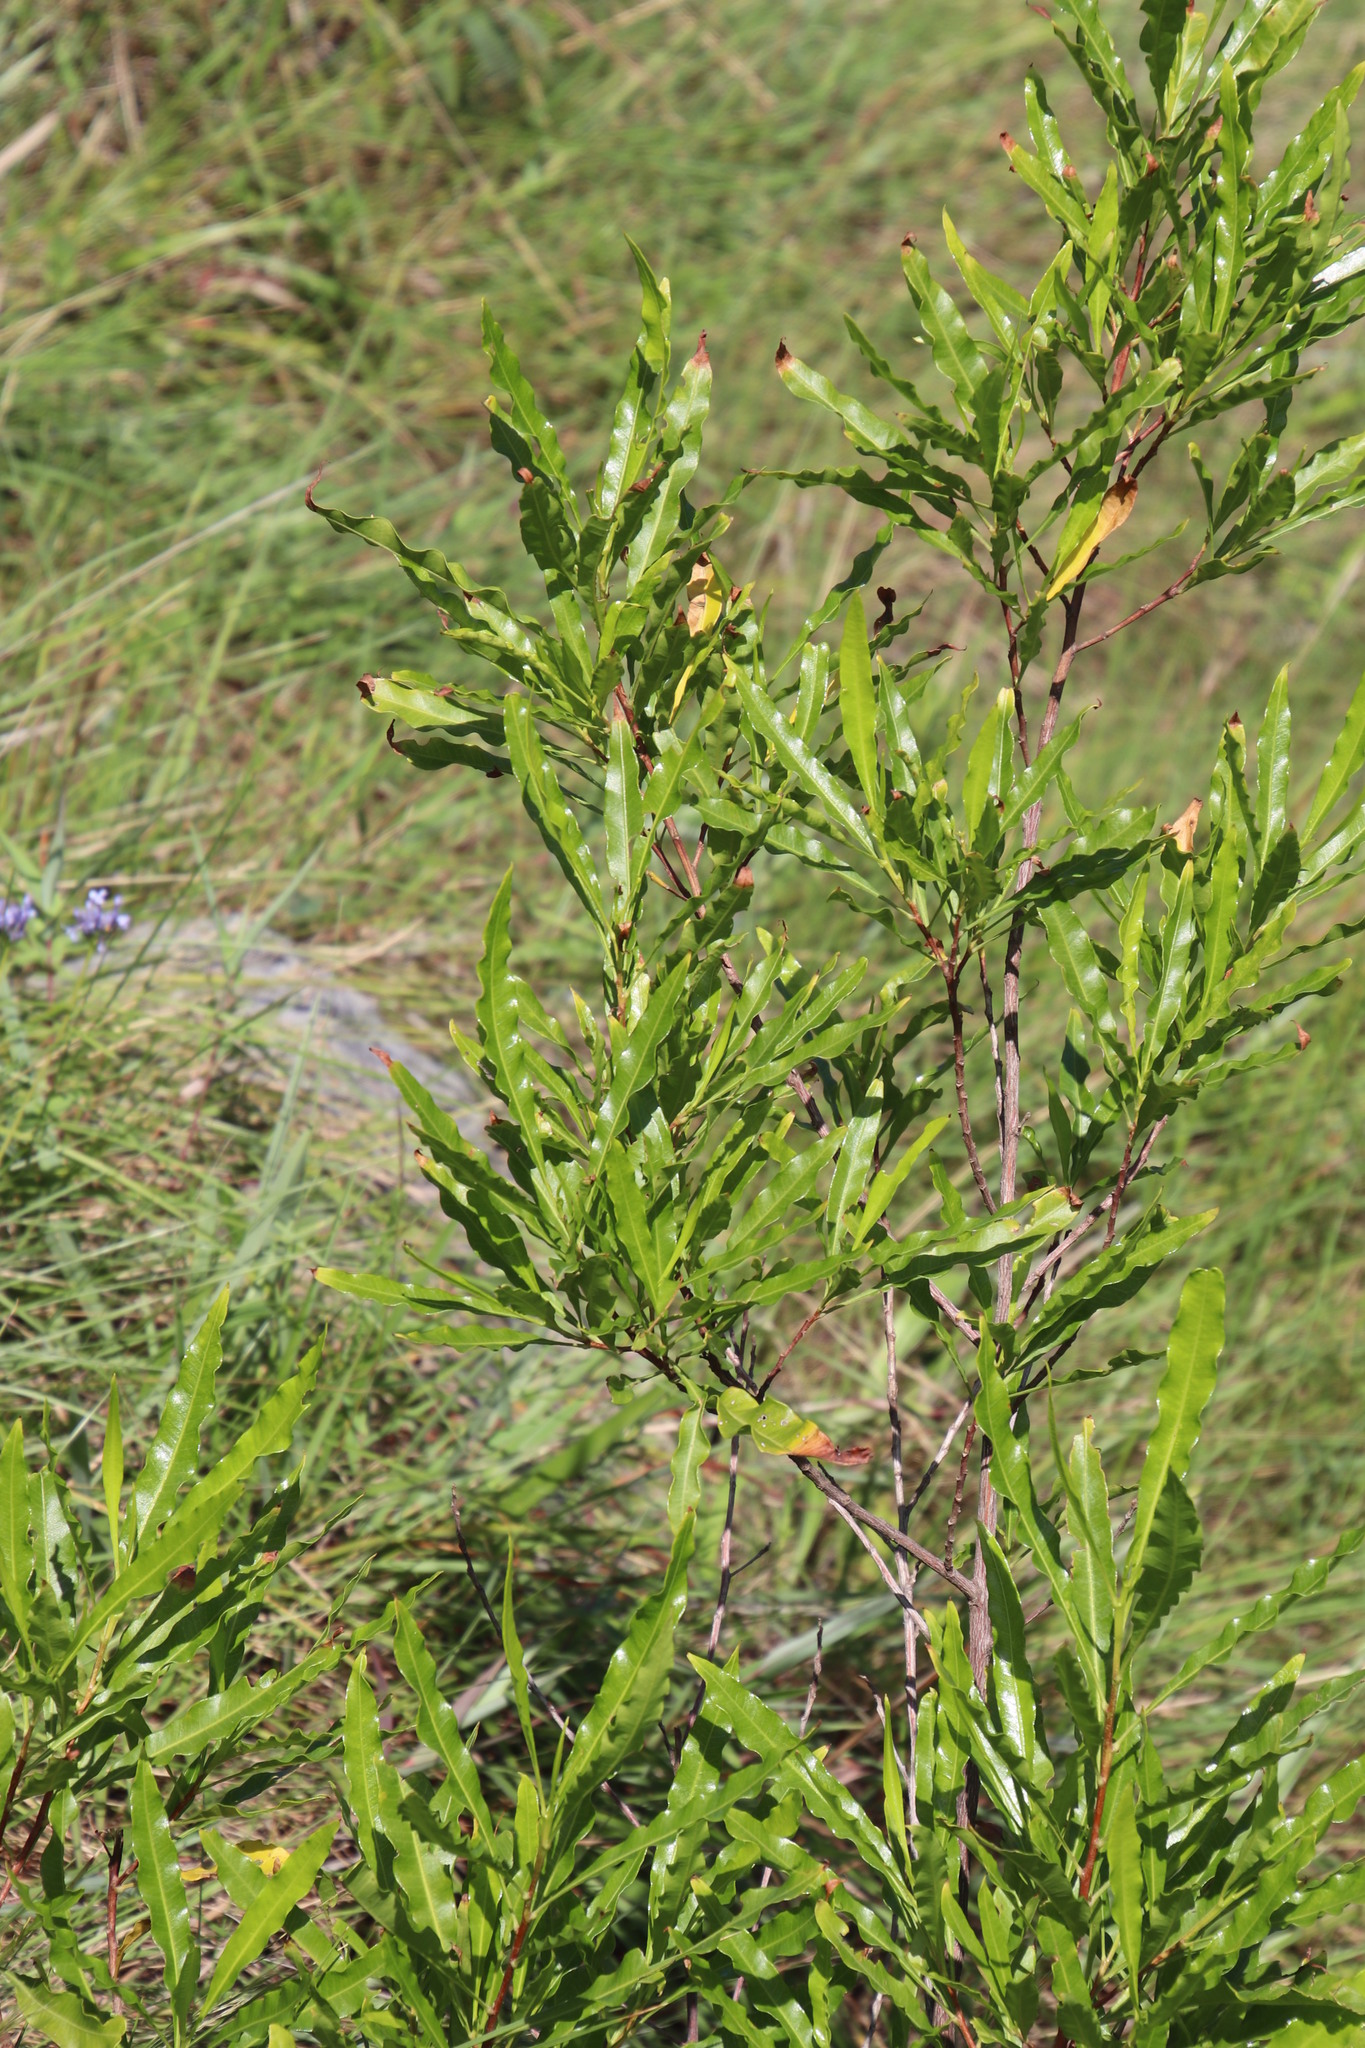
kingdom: Plantae
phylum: Tracheophyta
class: Magnoliopsida
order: Sapindales
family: Sapindaceae
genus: Dodonaea
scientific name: Dodonaea viscosa
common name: Hopbush
